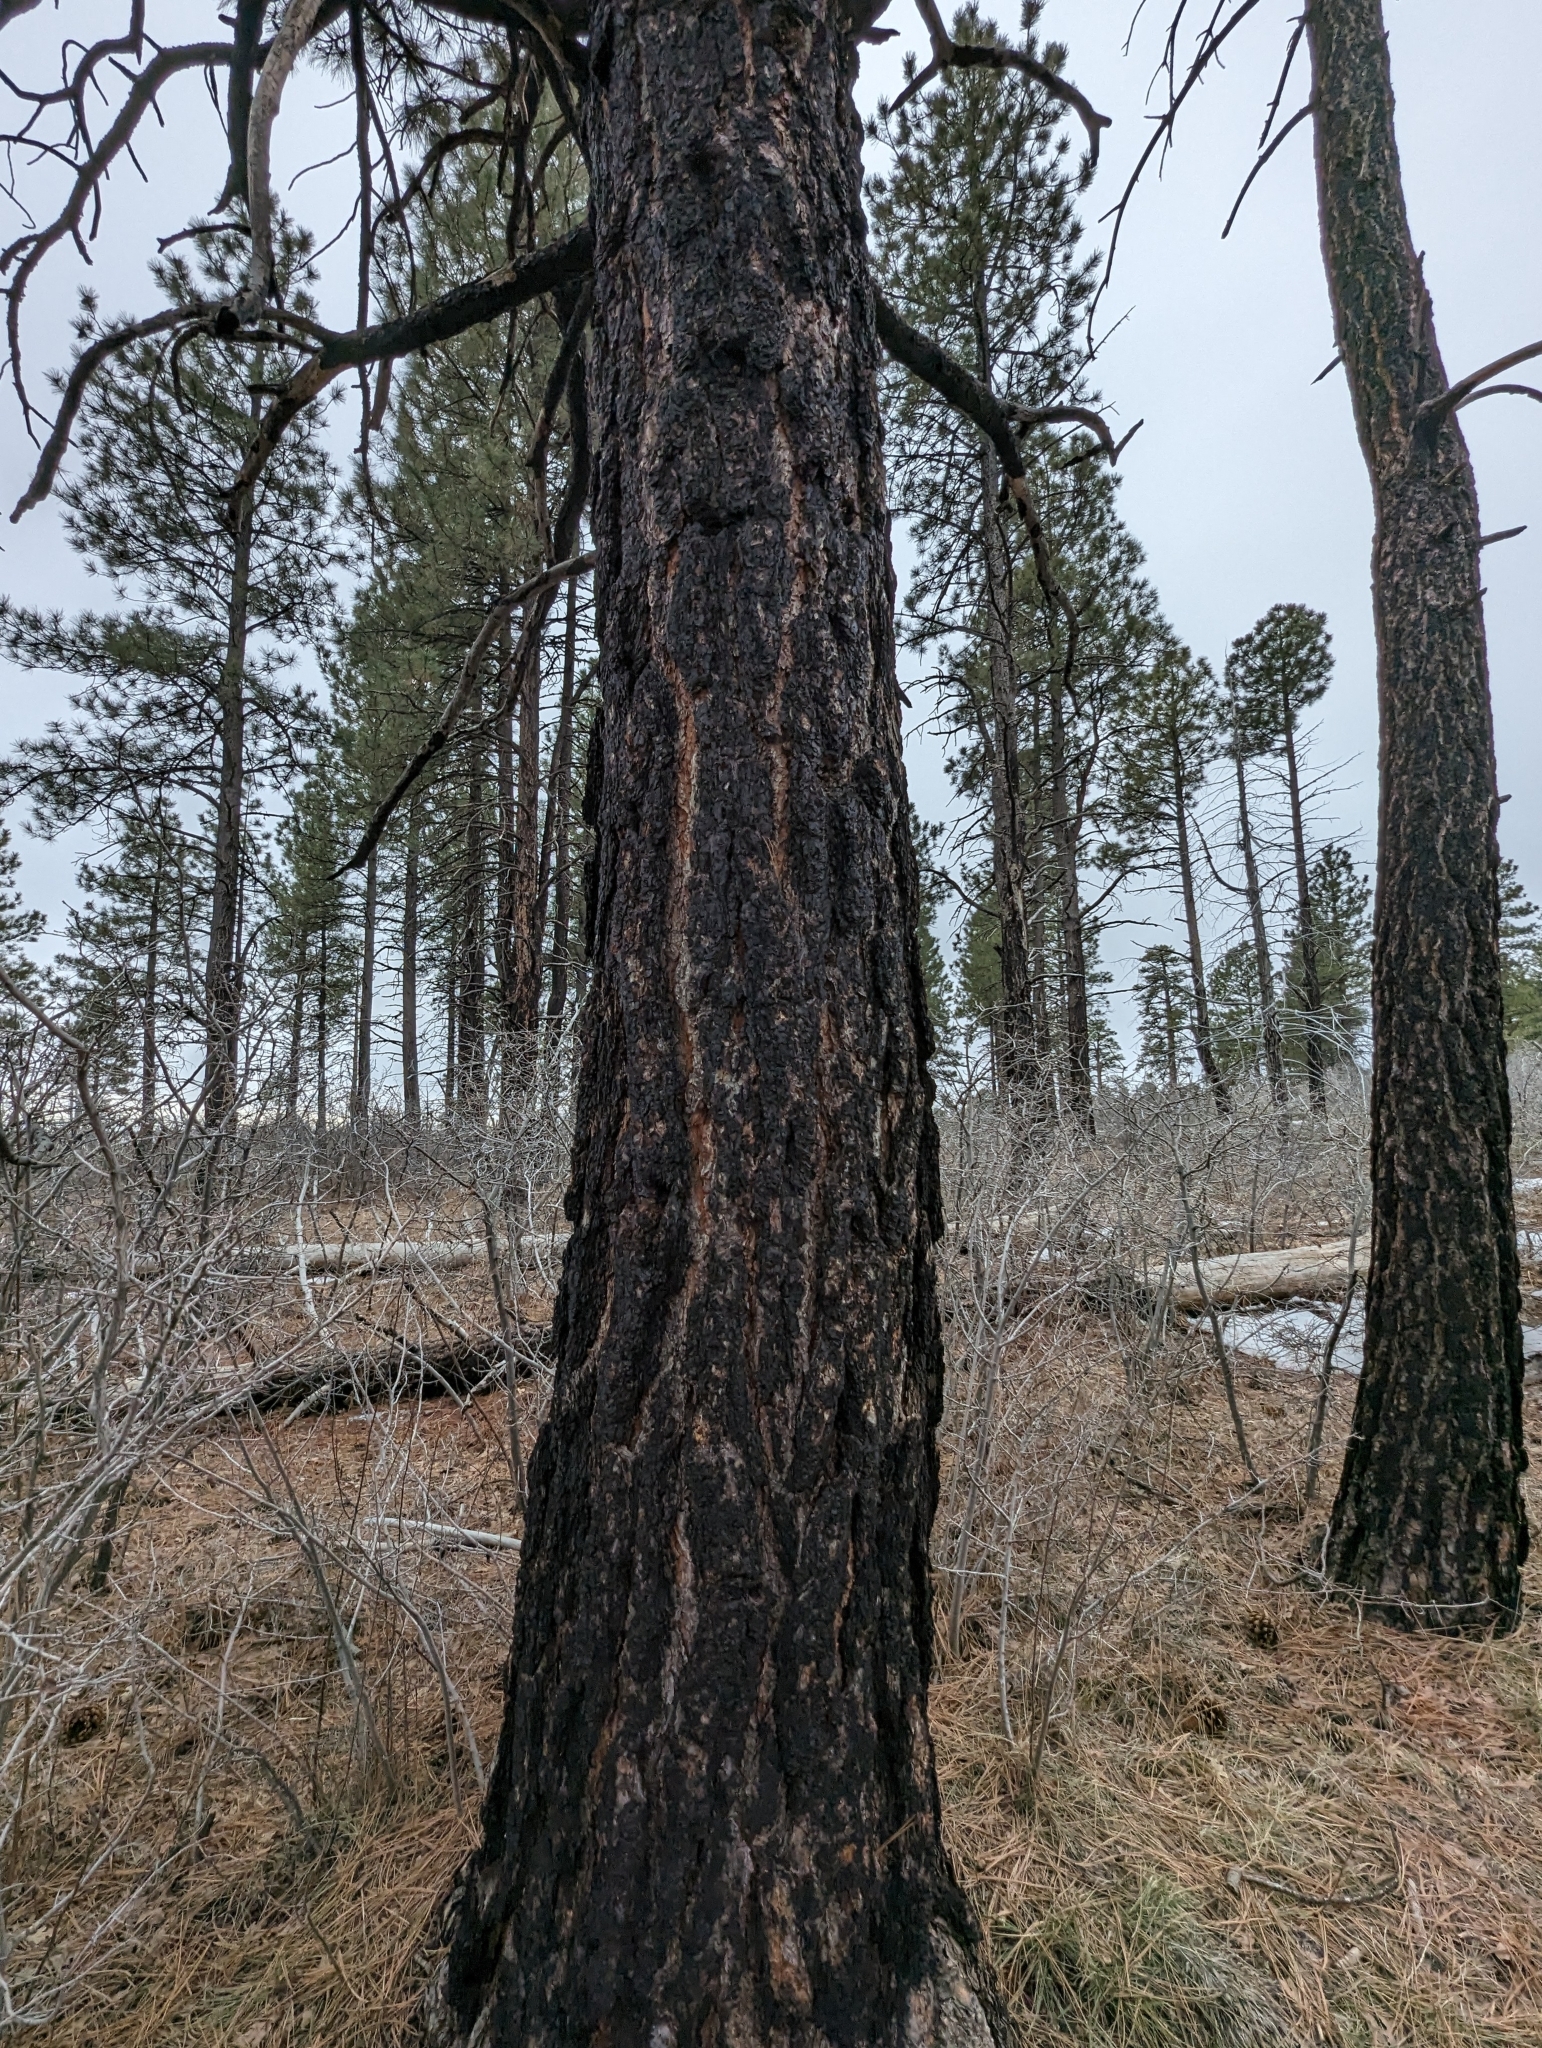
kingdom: Plantae
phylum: Tracheophyta
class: Pinopsida
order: Pinales
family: Pinaceae
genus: Pinus
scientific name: Pinus ponderosa
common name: Western yellow-pine
